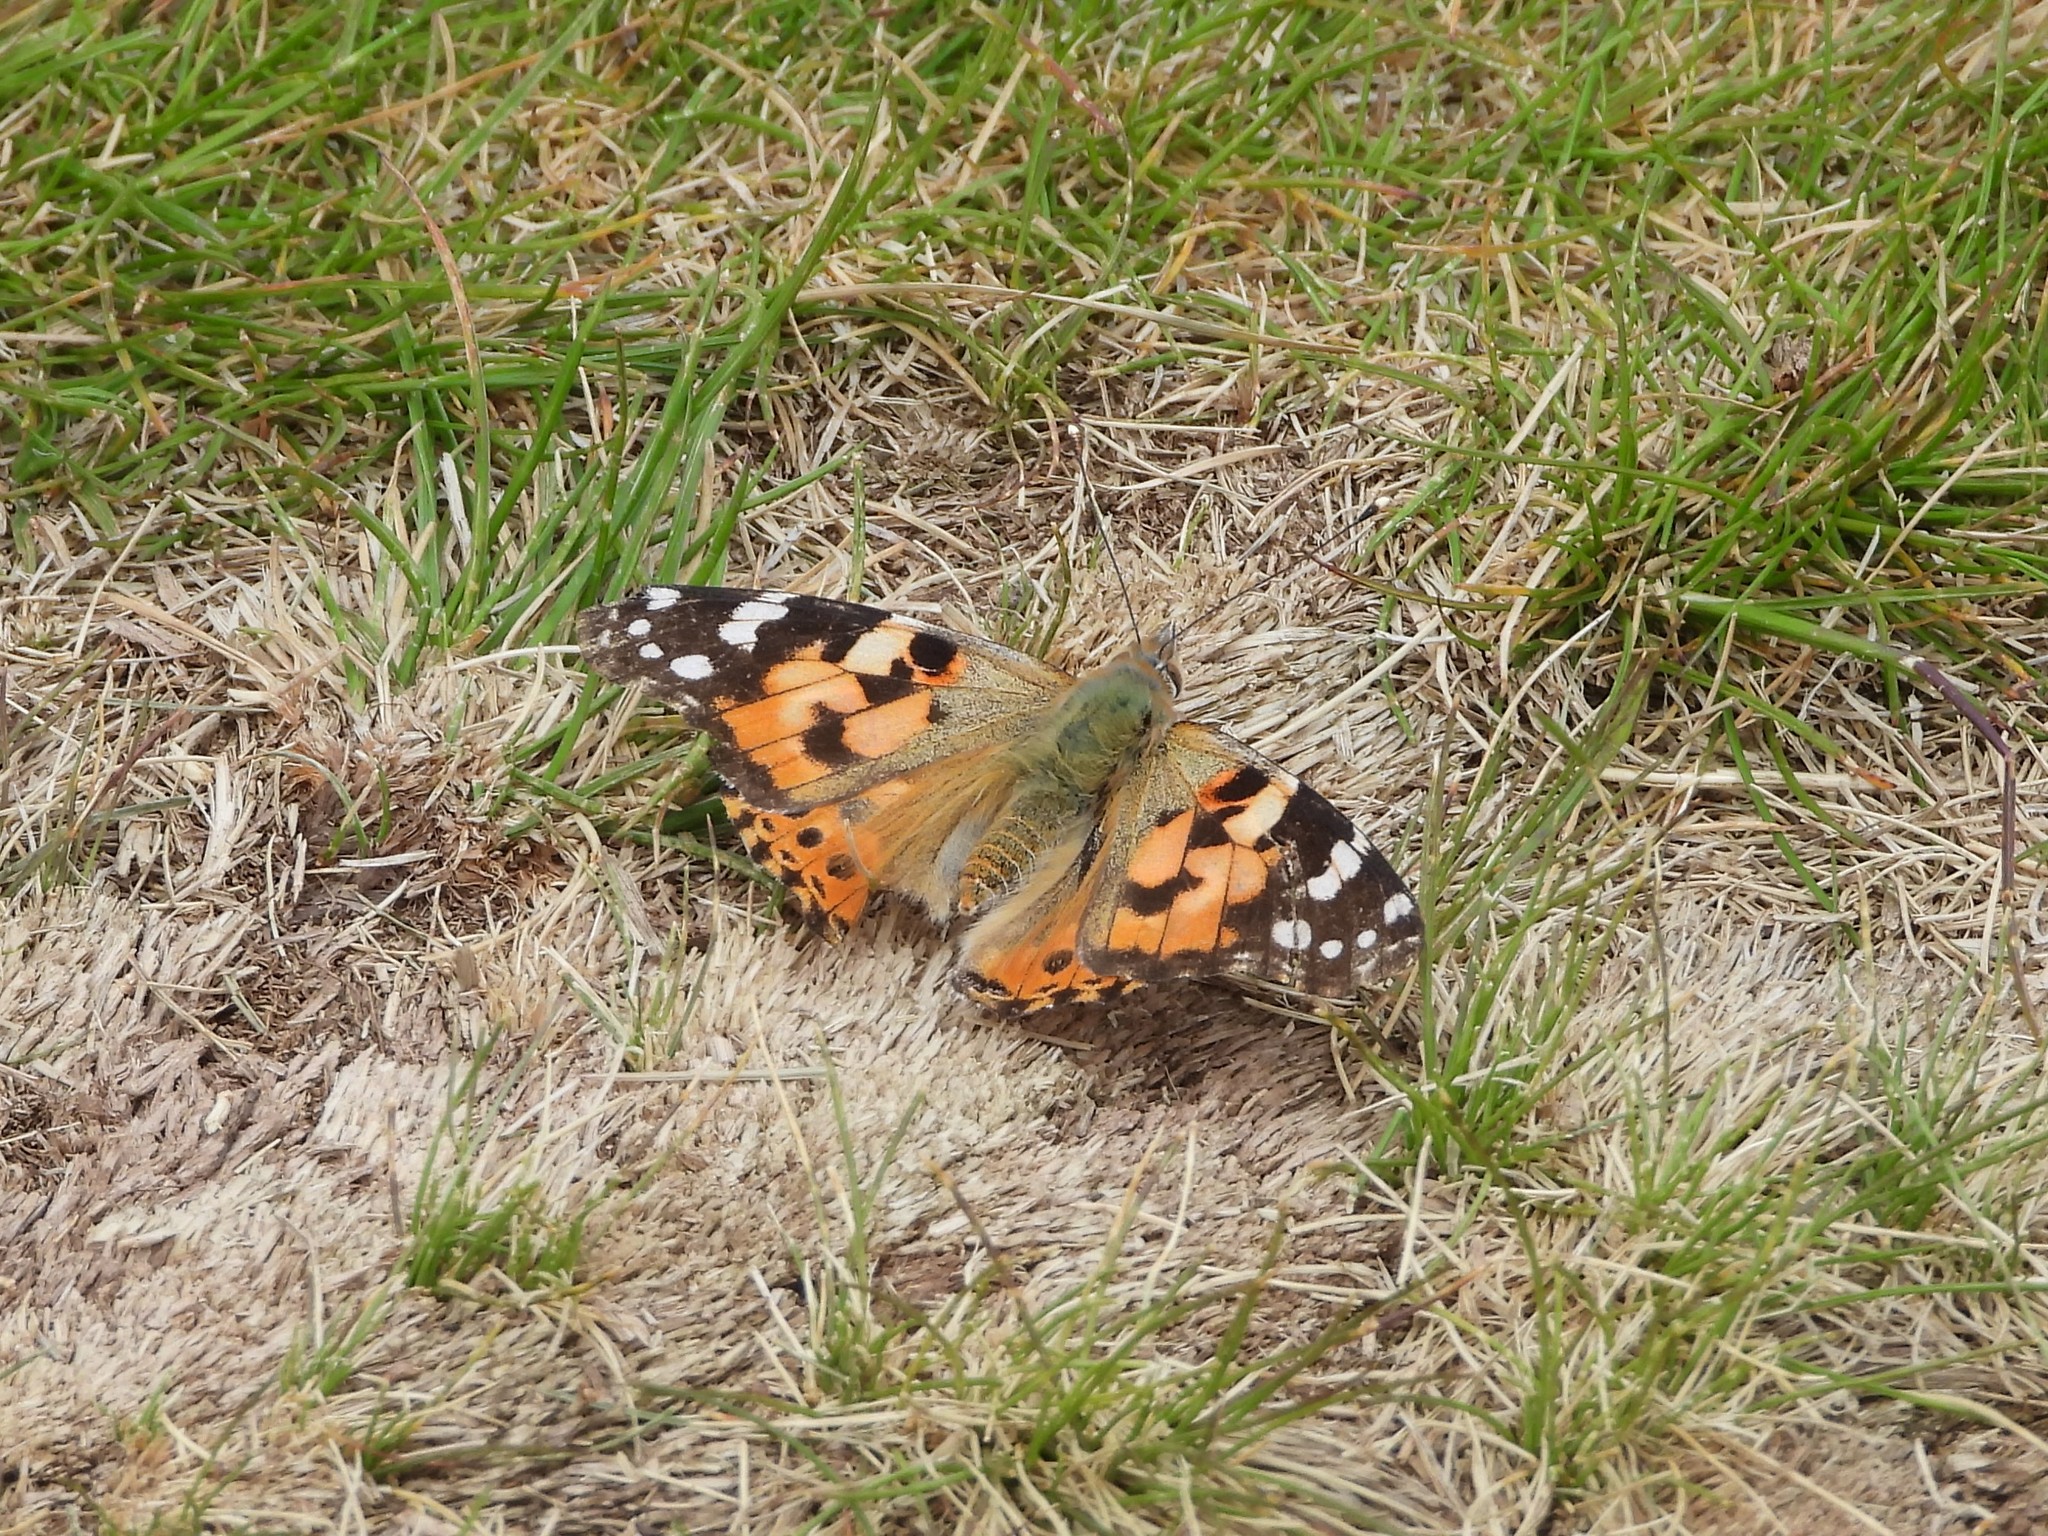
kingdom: Animalia
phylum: Arthropoda
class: Insecta
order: Lepidoptera
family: Nymphalidae
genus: Vanessa
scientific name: Vanessa cardui
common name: Painted lady
